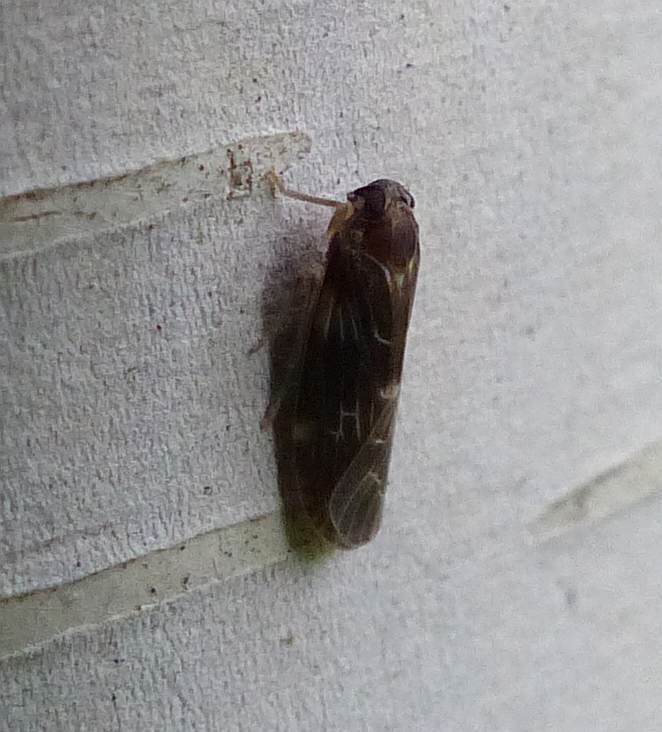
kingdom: Animalia
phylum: Arthropoda
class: Insecta
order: Hemiptera
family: Achilidae
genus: Synecdoche
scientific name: Synecdoche dimidiata
